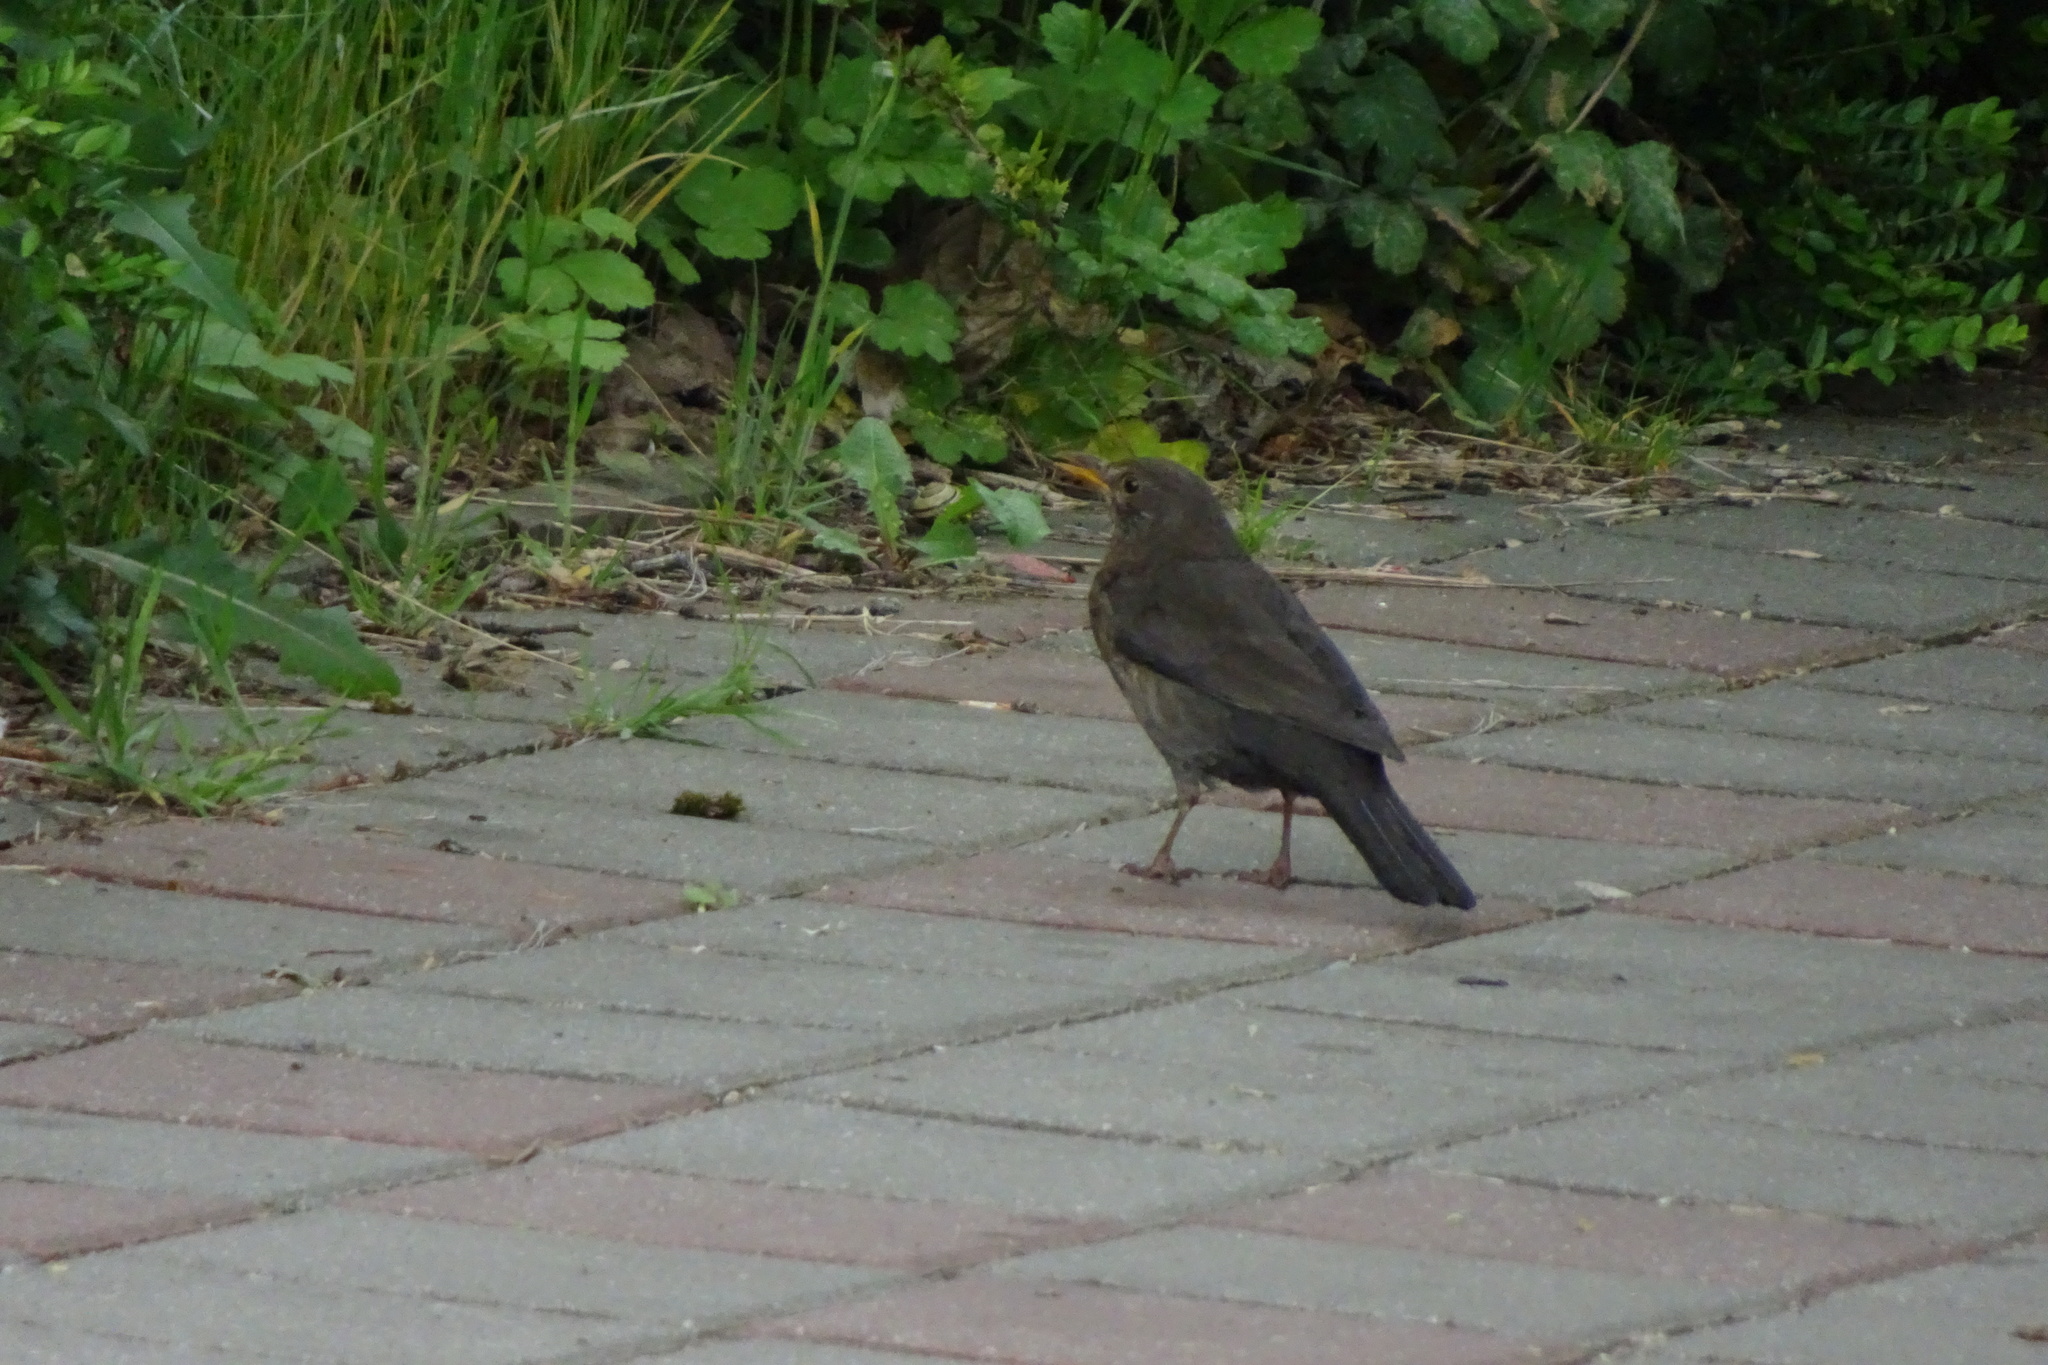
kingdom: Animalia
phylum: Chordata
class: Aves
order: Passeriformes
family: Turdidae
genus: Turdus
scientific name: Turdus merula
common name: Common blackbird
